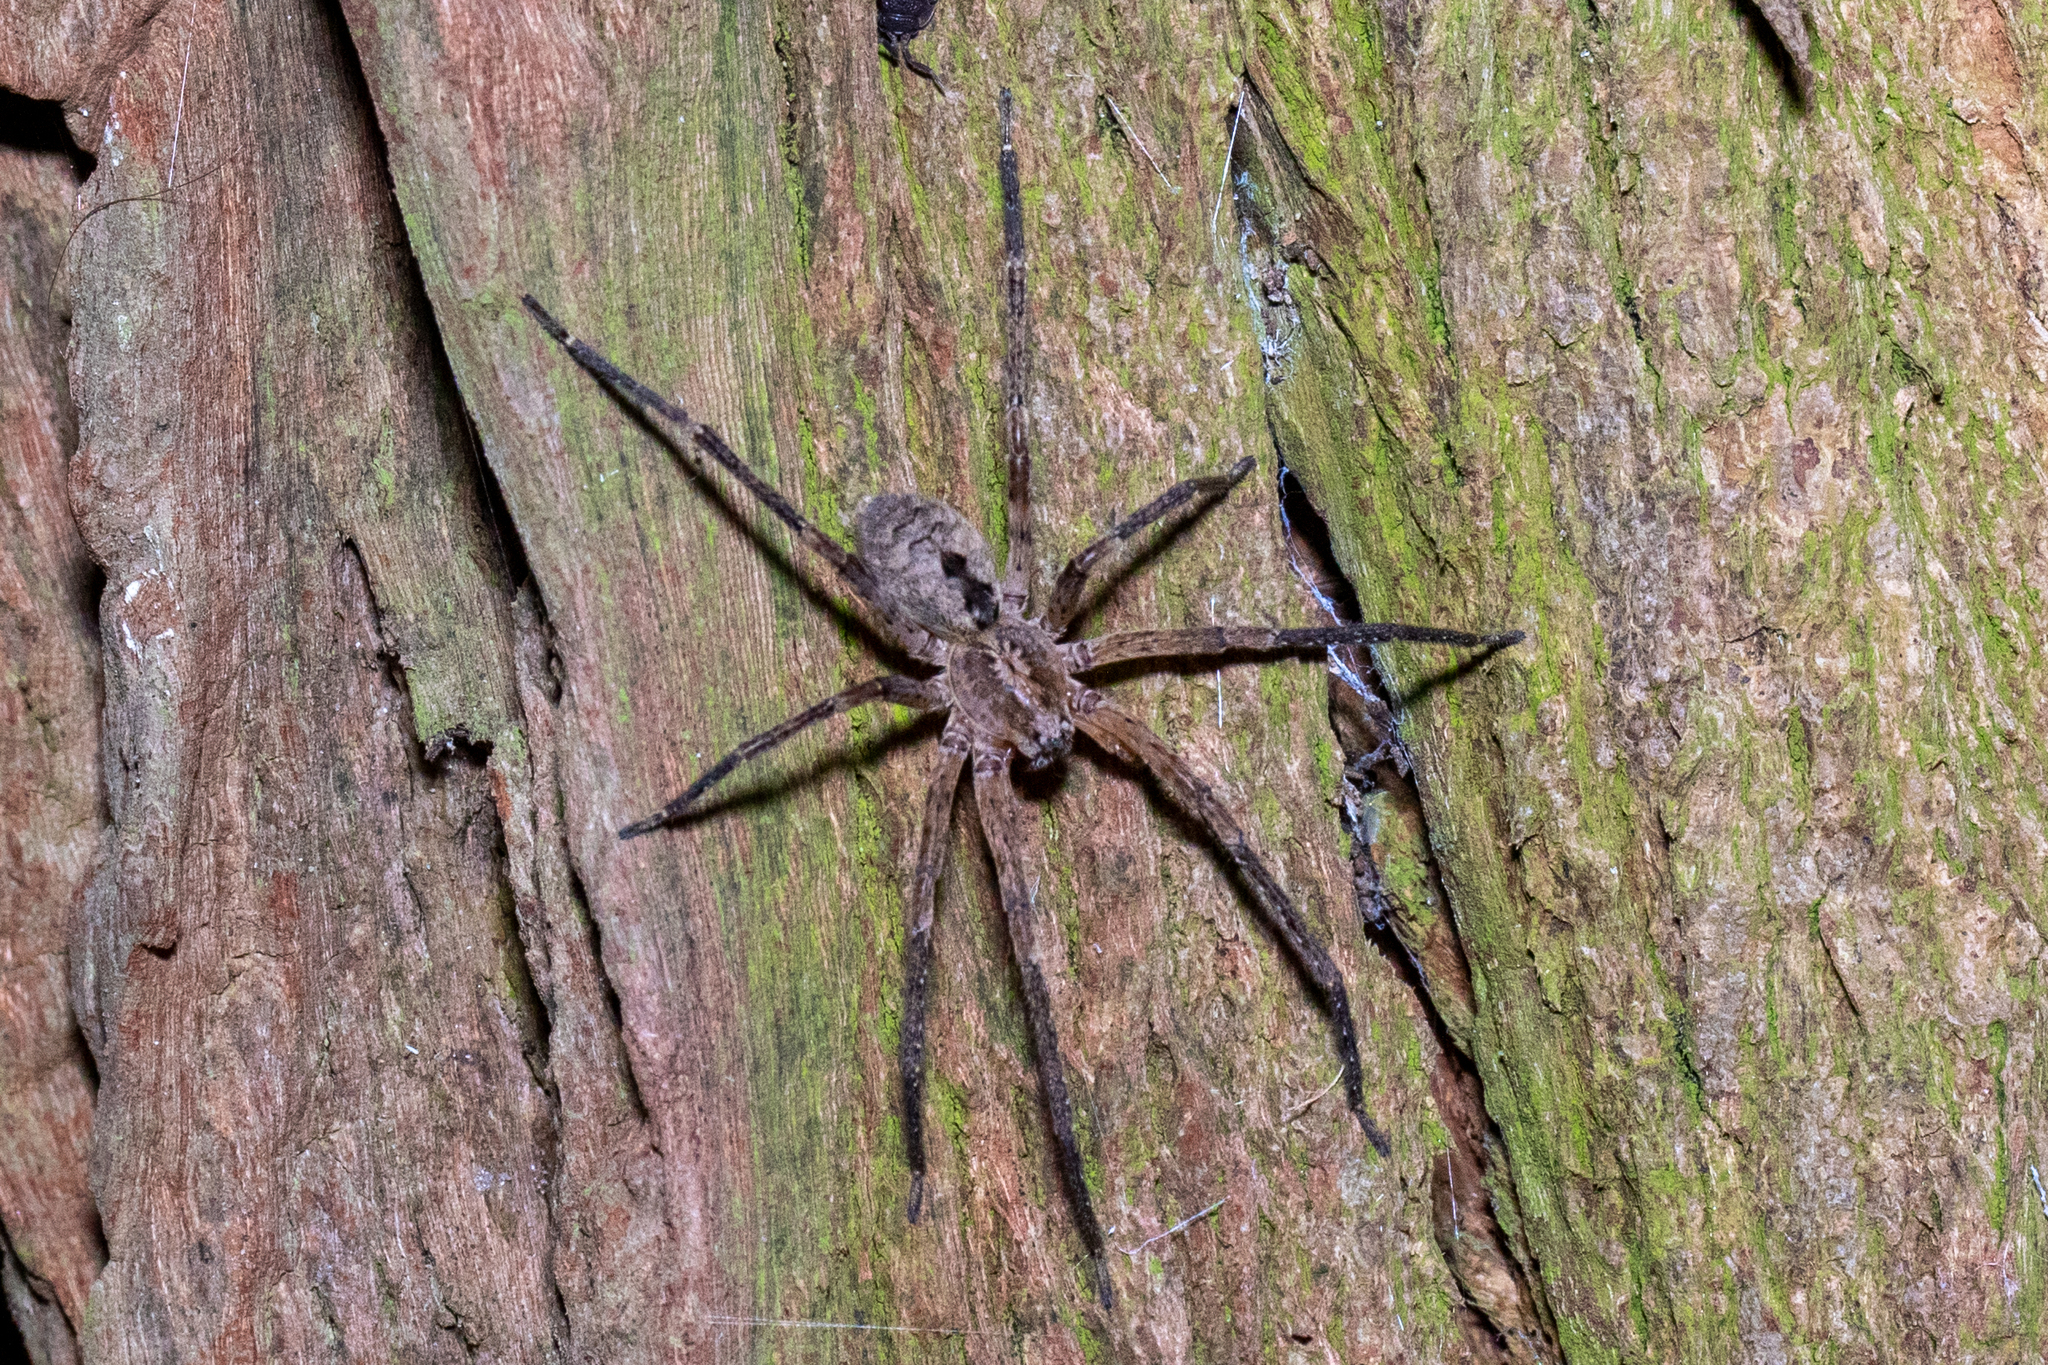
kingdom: Animalia
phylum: Arthropoda
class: Arachnida
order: Araneae
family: Zoropsidae
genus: Zoropsis
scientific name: Zoropsis spinimana
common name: Zoropsid spider
